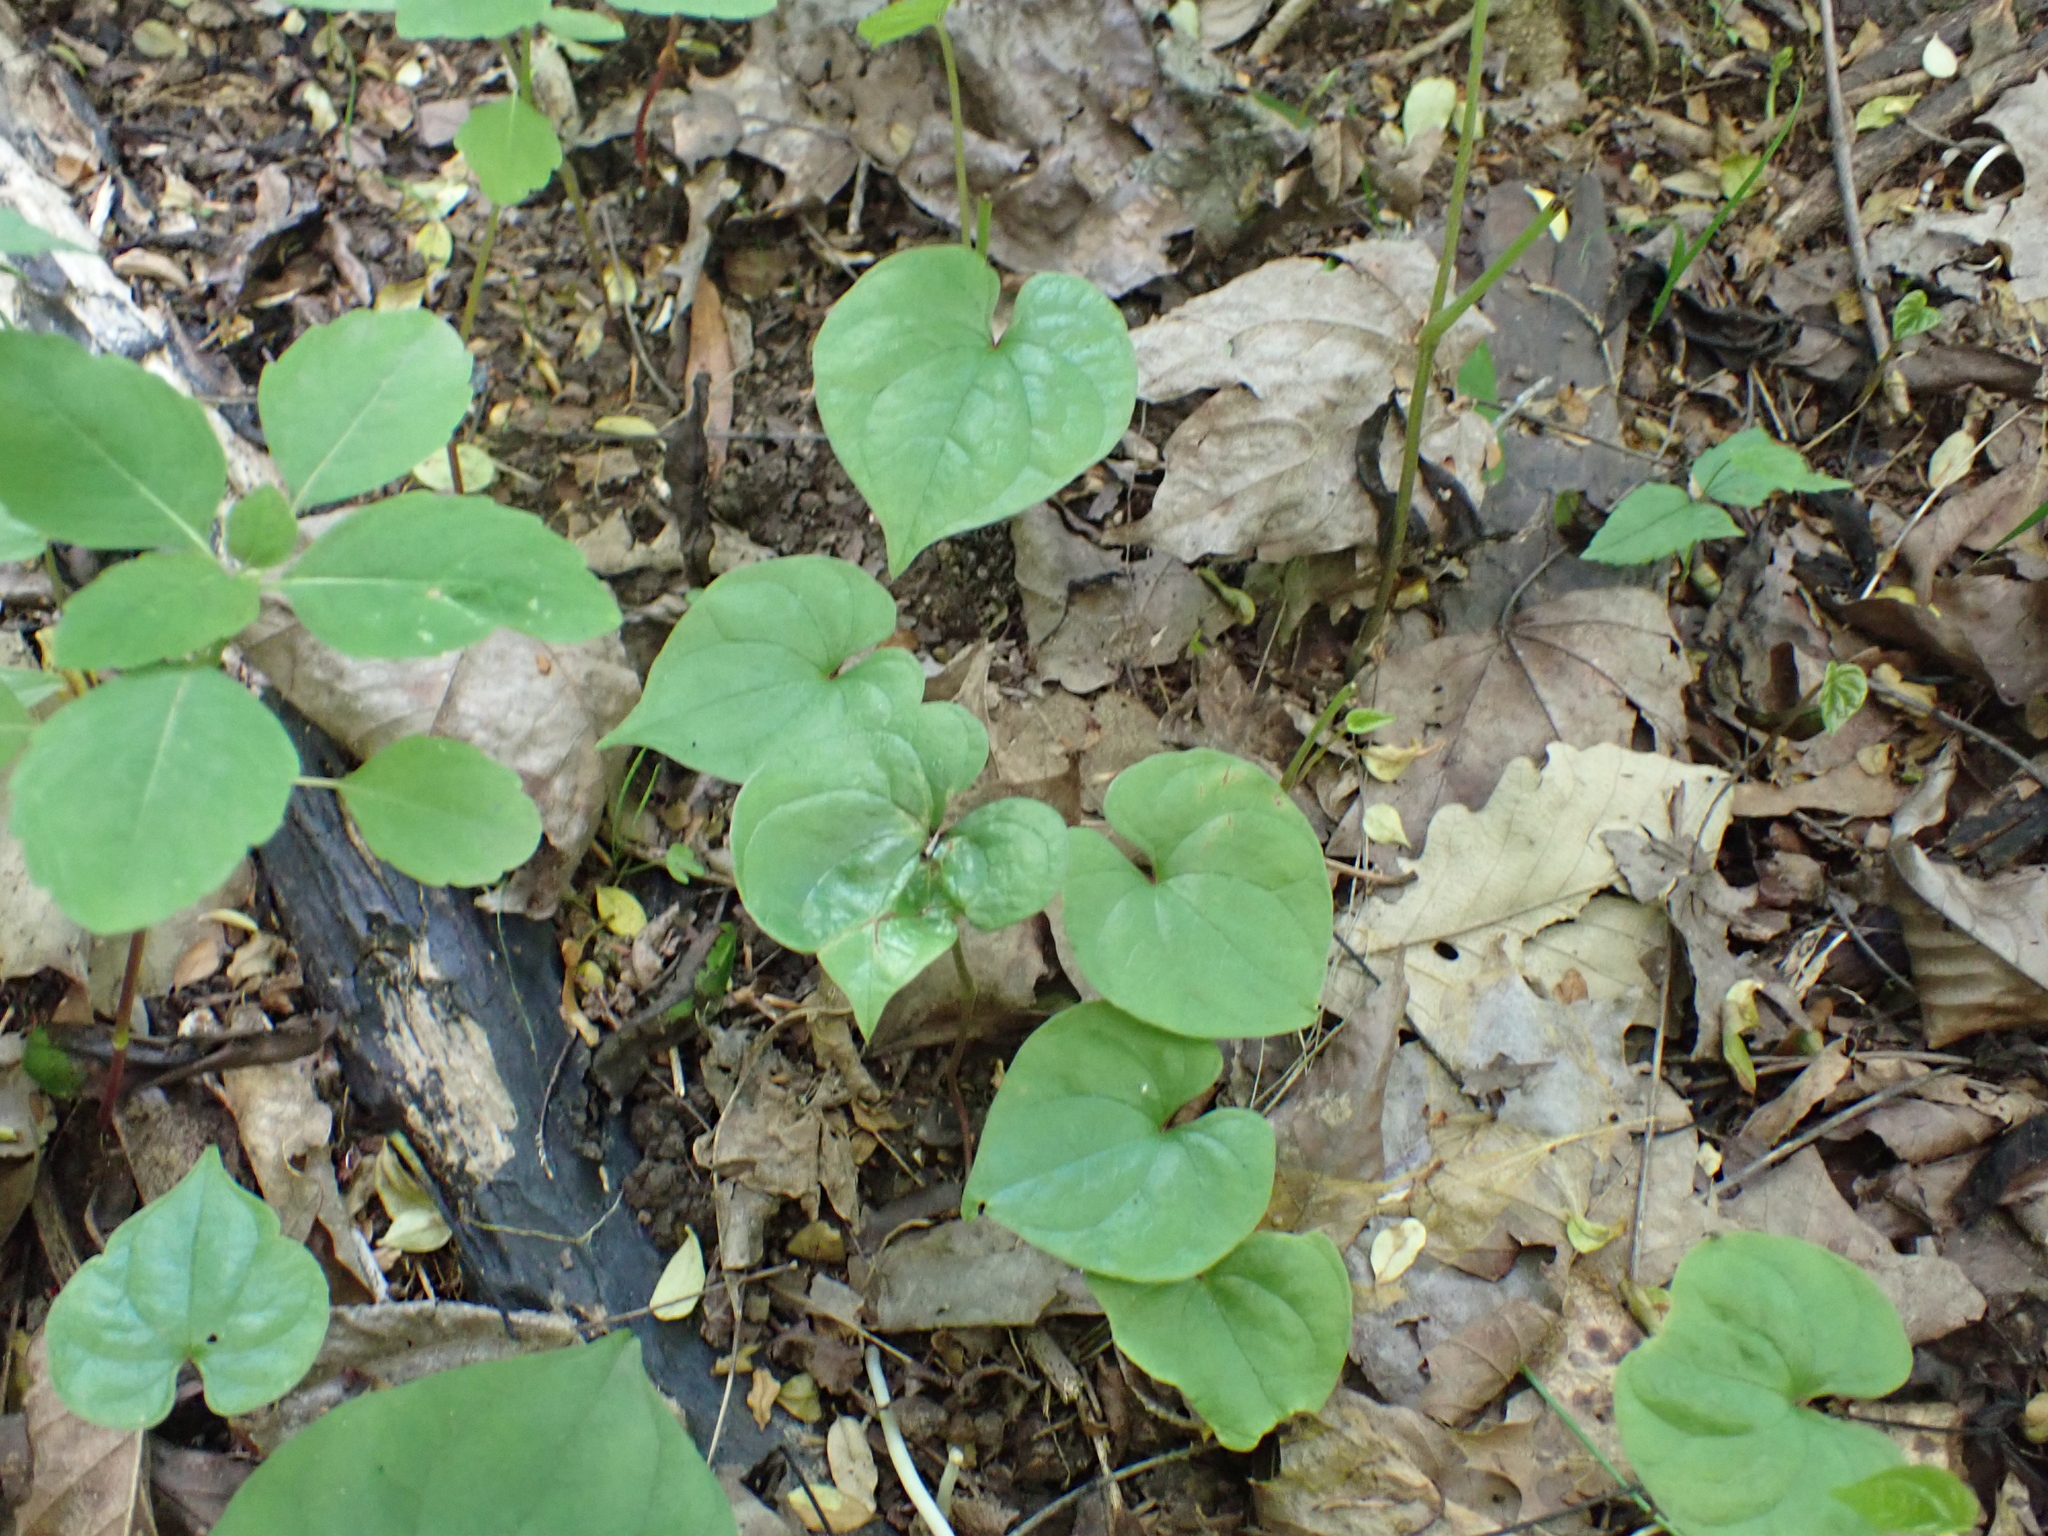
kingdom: Plantae
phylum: Tracheophyta
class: Liliopsida
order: Dioscoreales
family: Dioscoreaceae
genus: Dioscorea
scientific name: Dioscorea polystachya
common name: Chinese yam
